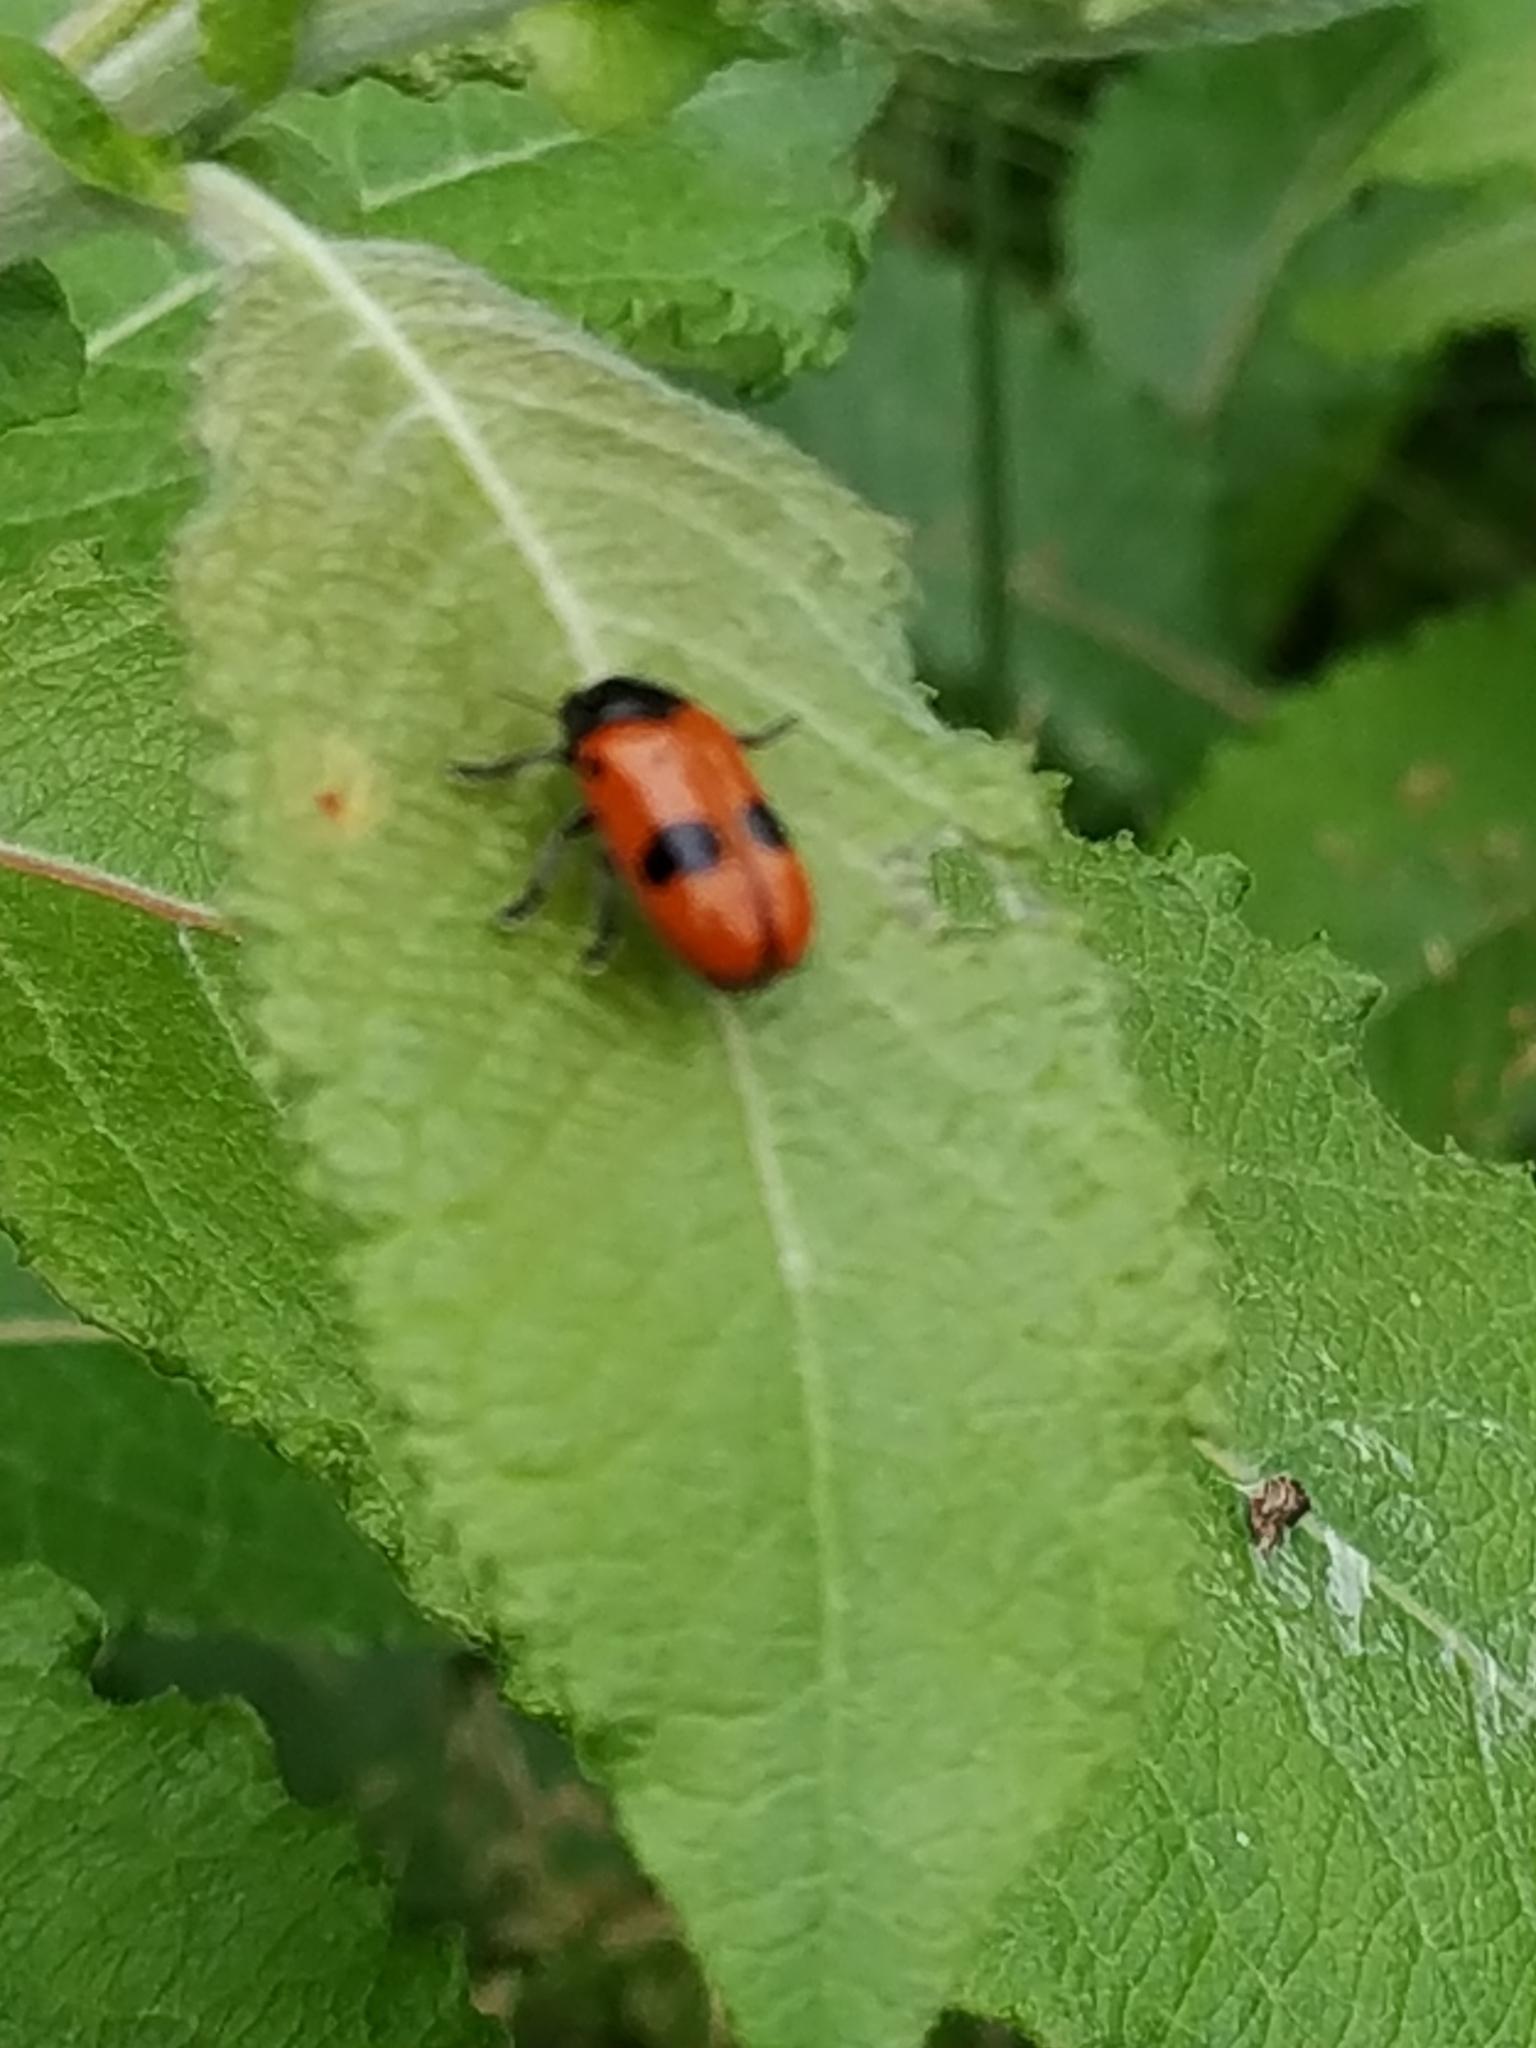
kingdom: Animalia
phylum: Arthropoda
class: Insecta
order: Coleoptera
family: Chrysomelidae
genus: Clytra
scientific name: Clytra laeviuscula
